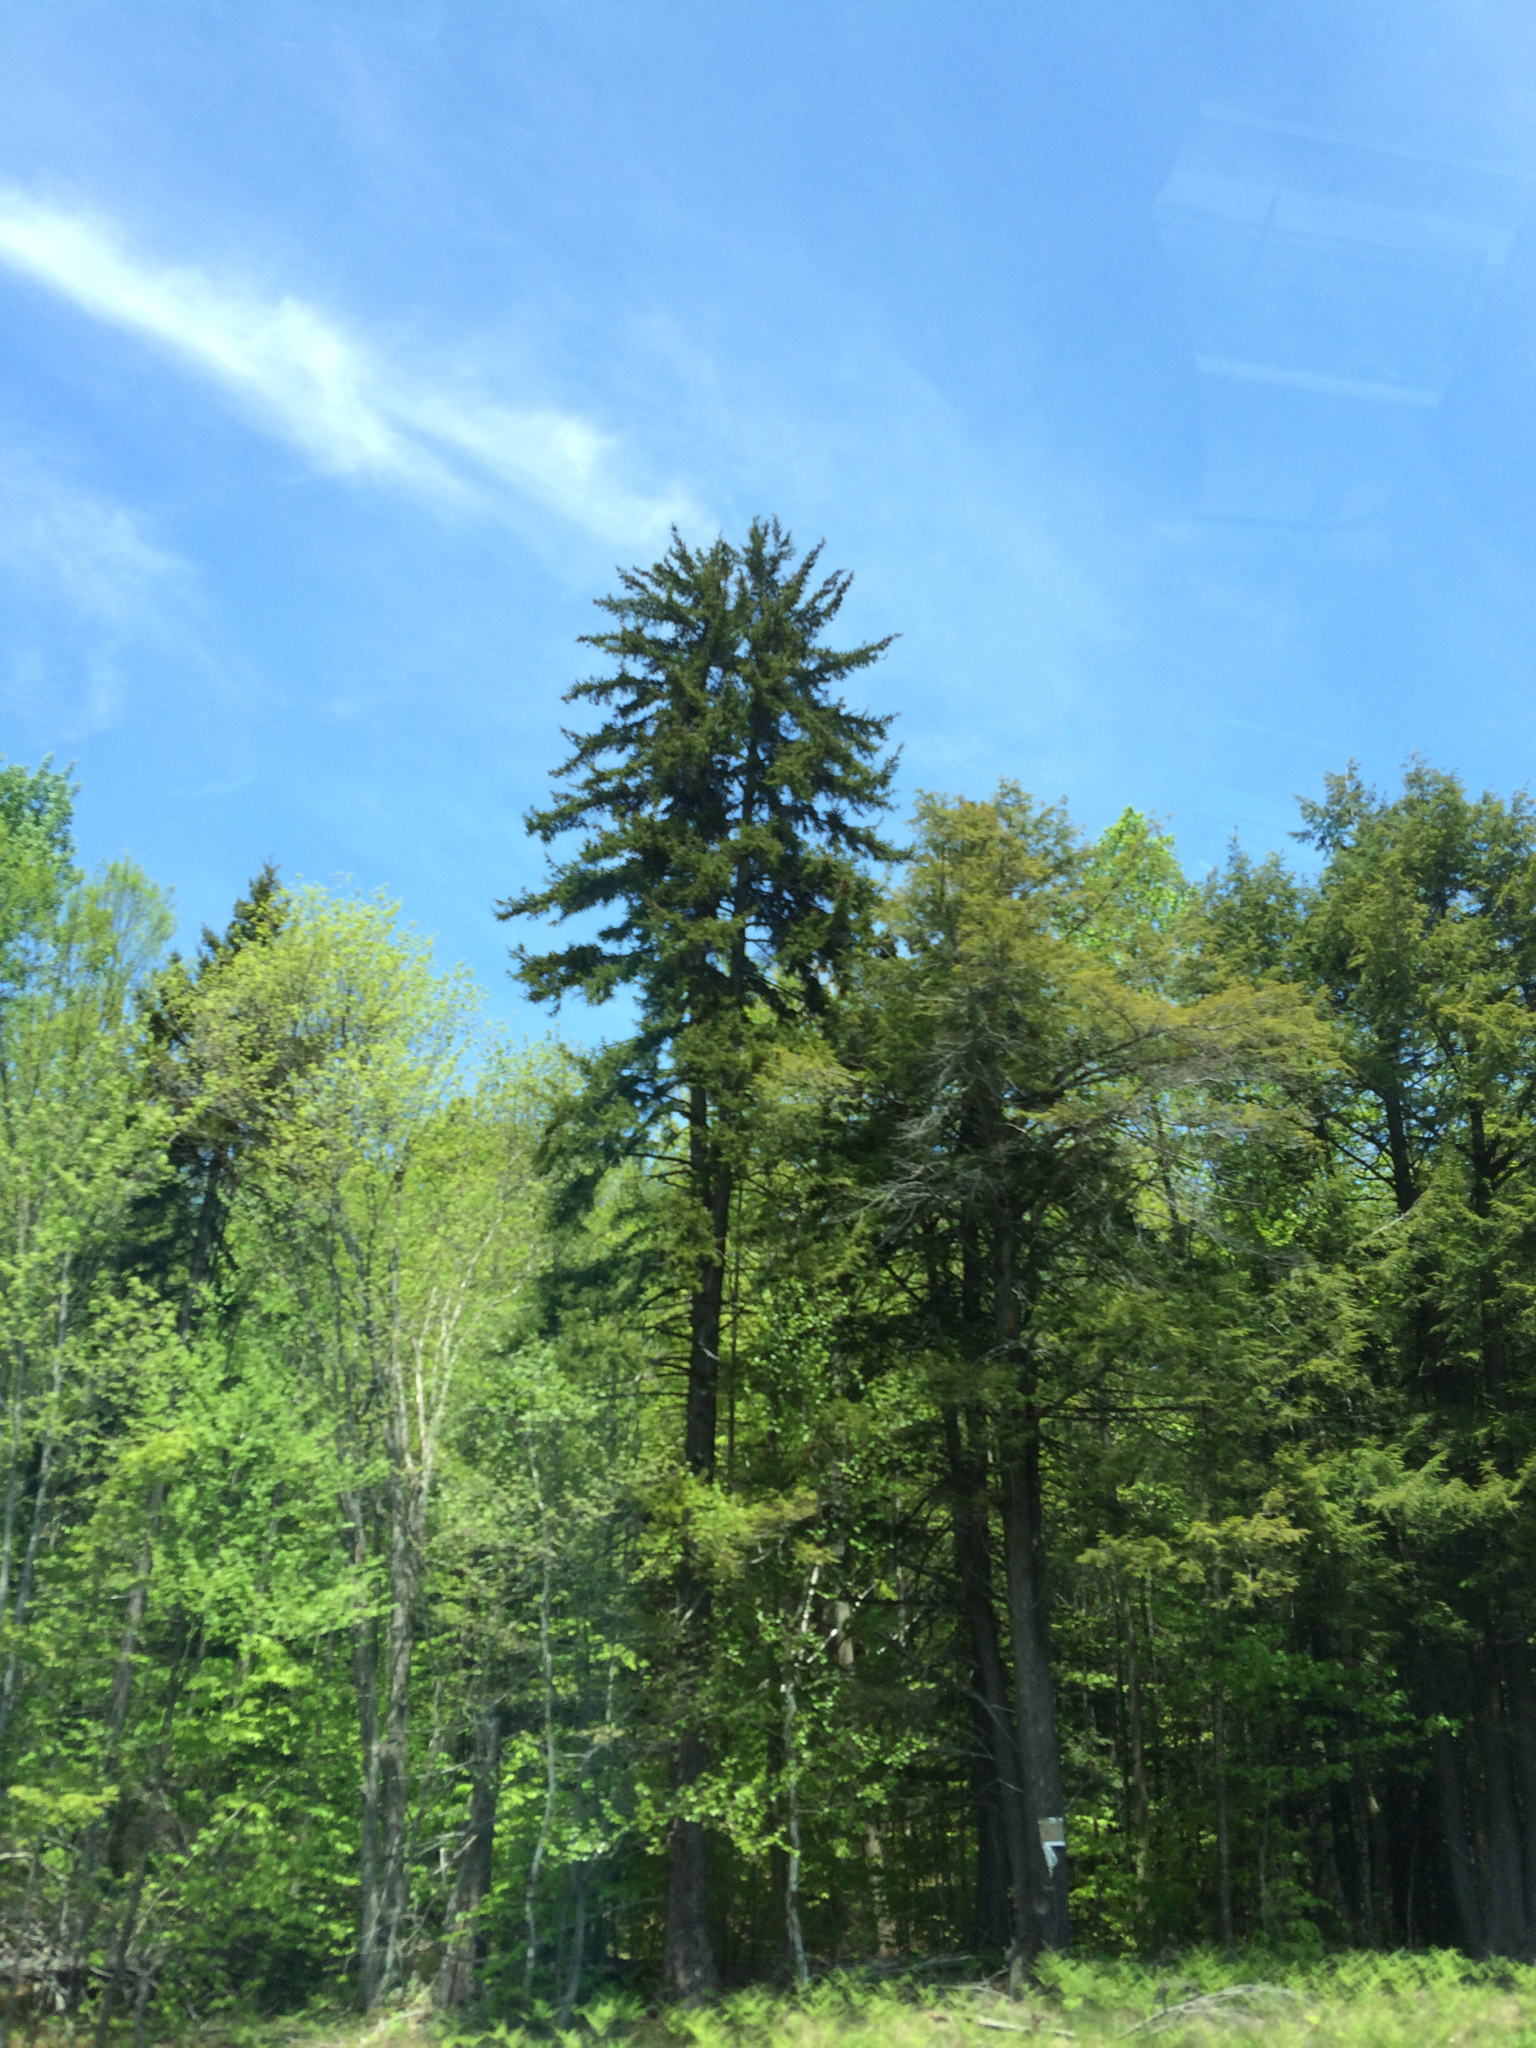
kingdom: Plantae
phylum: Tracheophyta
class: Pinopsida
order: Pinales
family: Pinaceae
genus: Picea
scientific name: Picea rubens
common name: Red spruce
